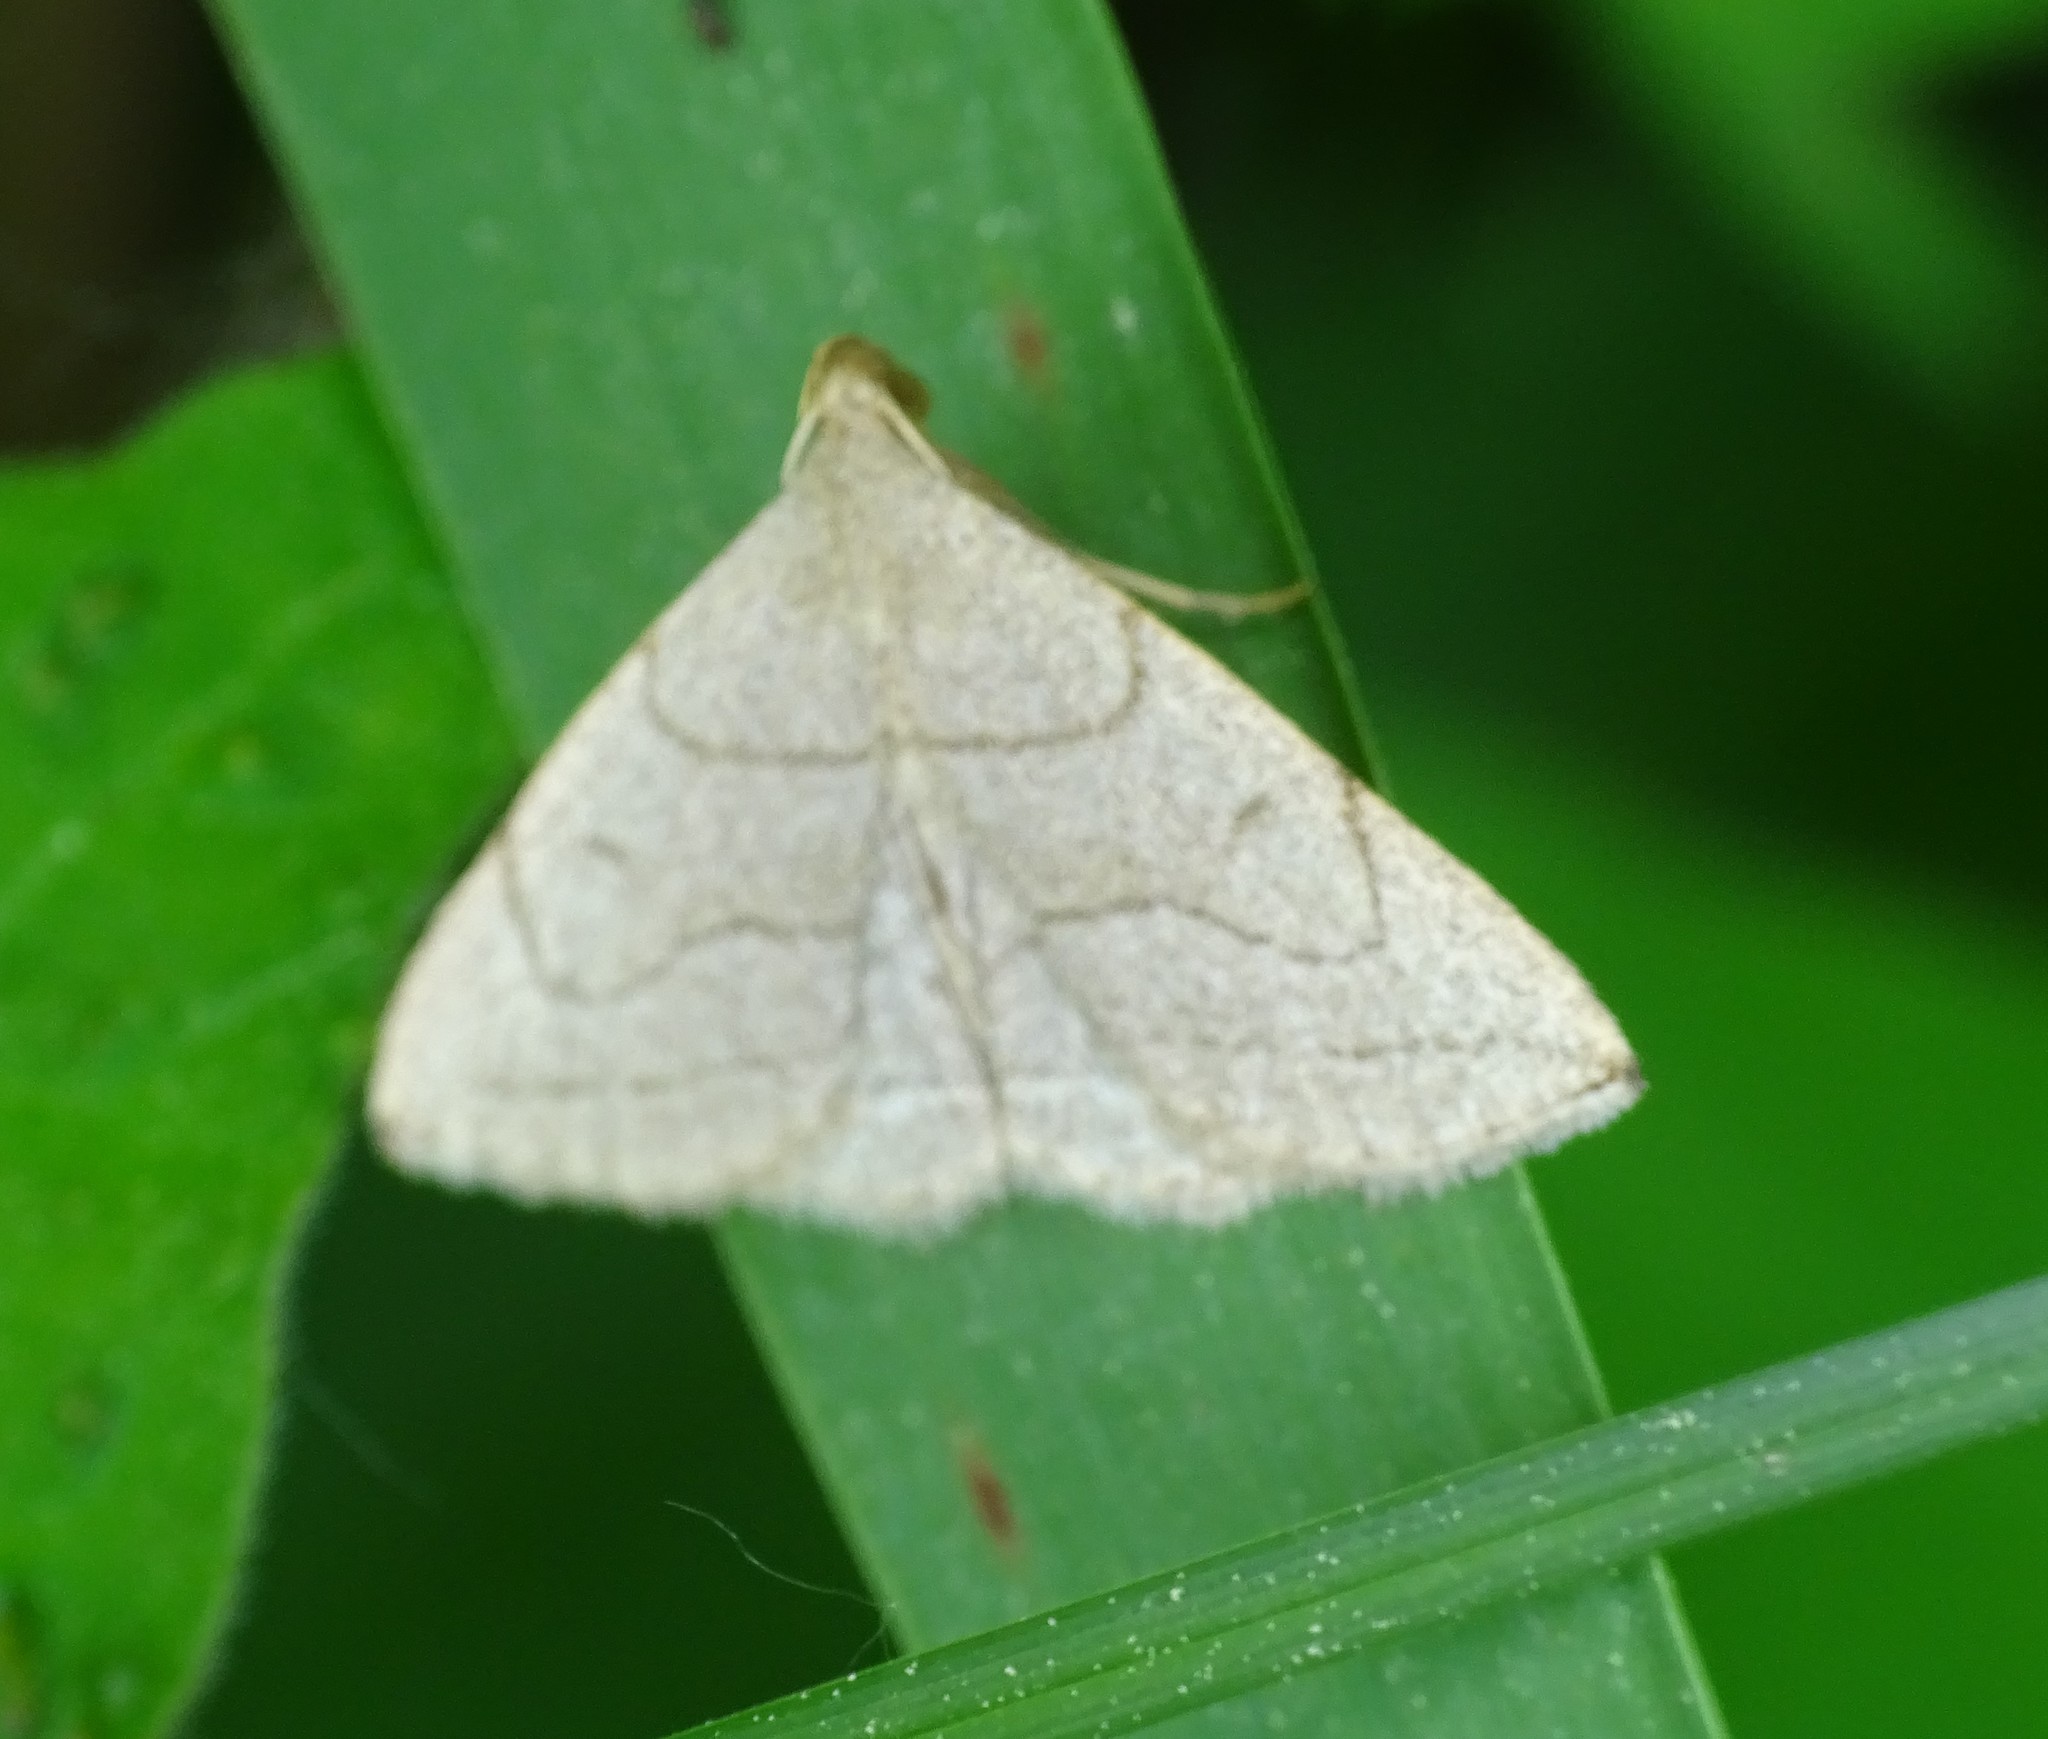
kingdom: Animalia
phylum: Arthropoda
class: Insecta
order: Lepidoptera
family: Erebidae
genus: Zanclognatha
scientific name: Zanclognatha pedipilalis
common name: Grayish fan-foot
